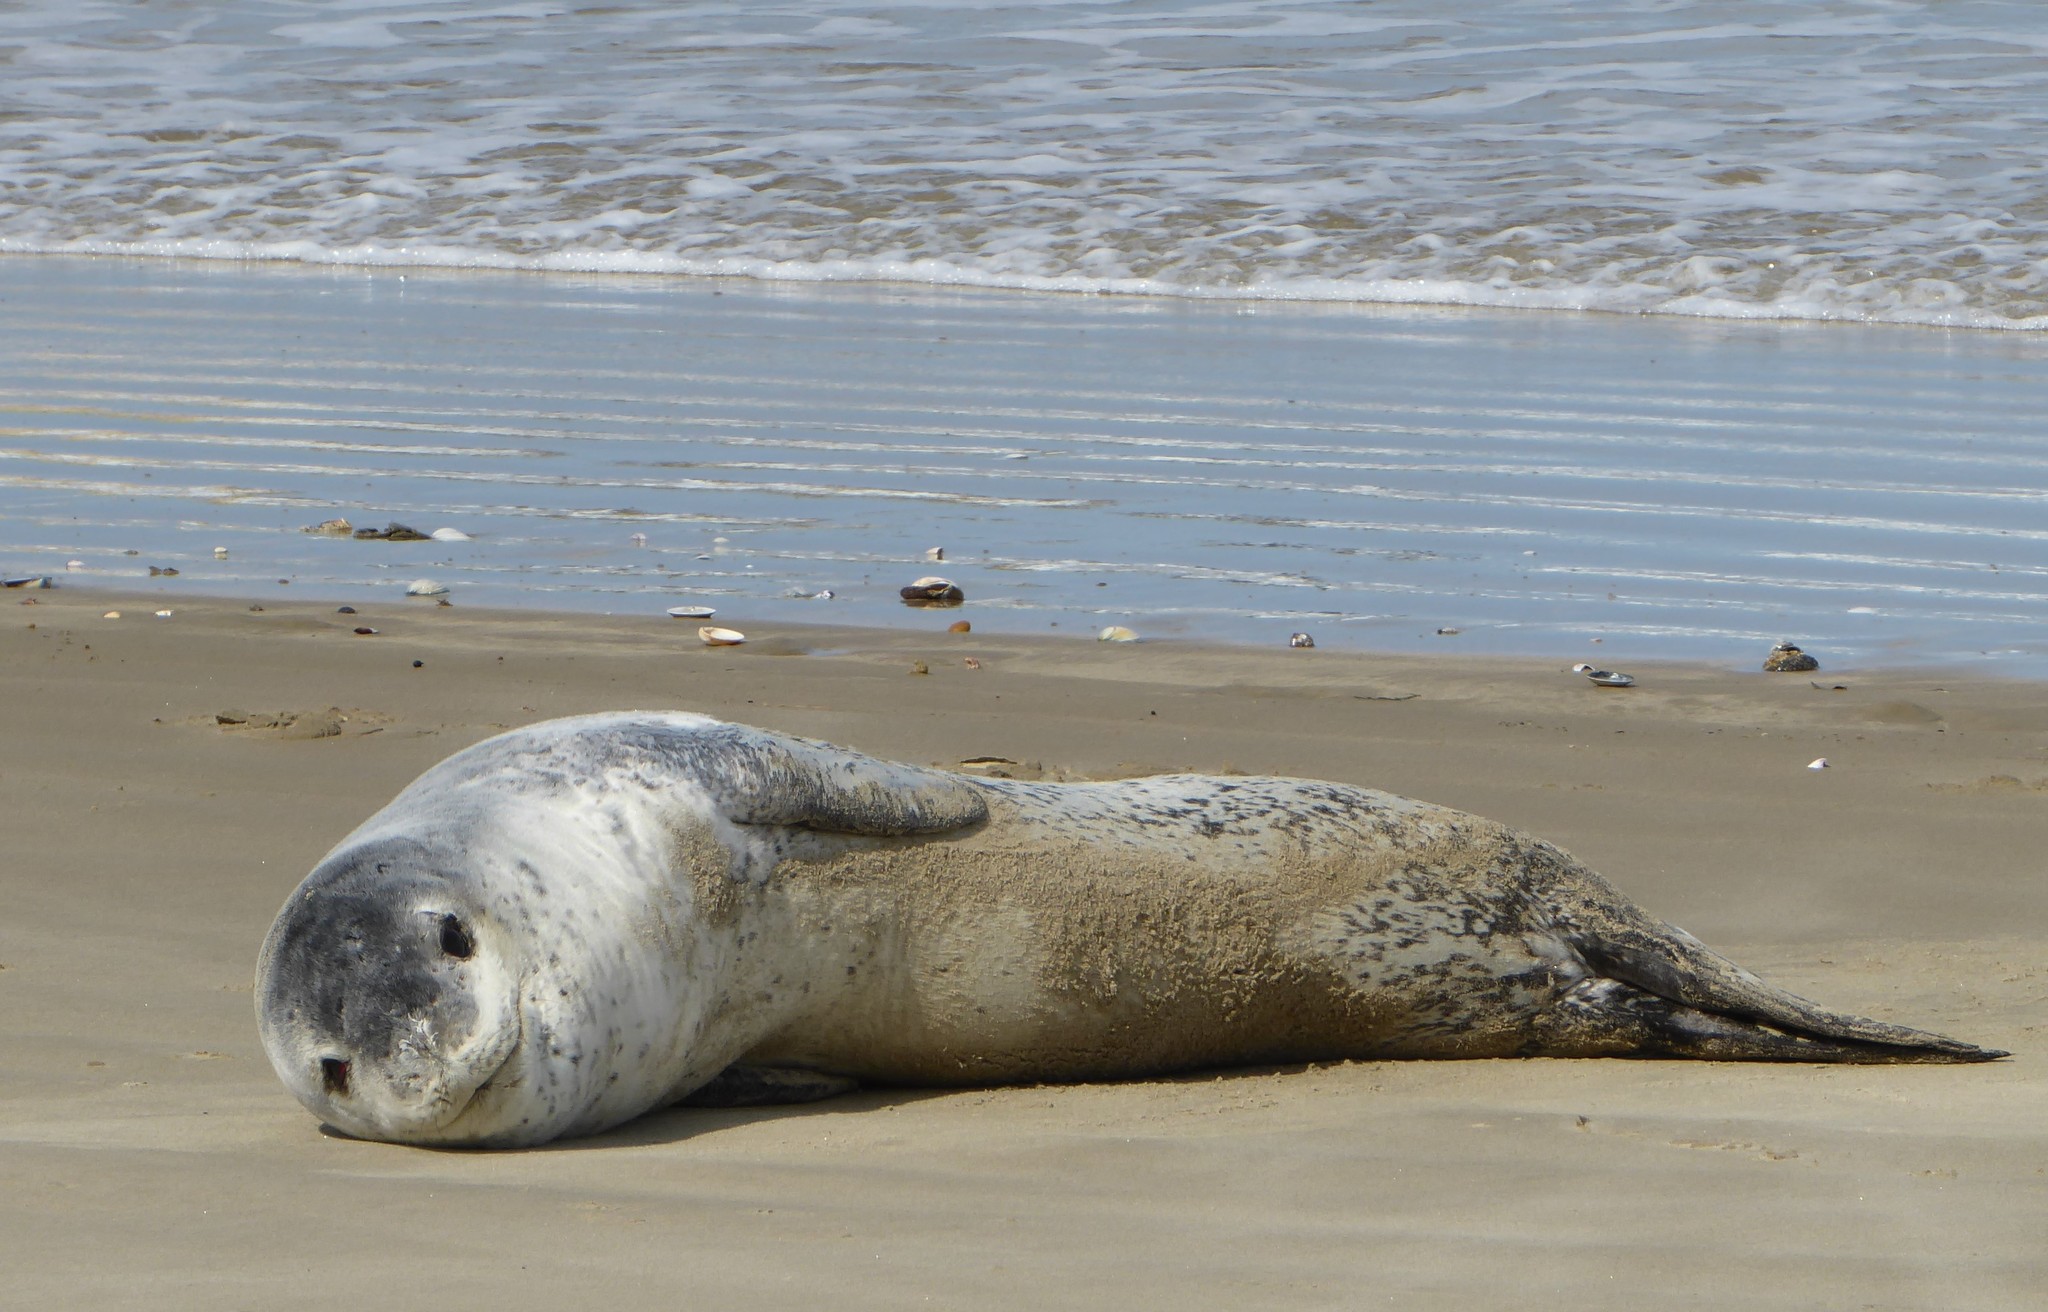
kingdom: Animalia
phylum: Chordata
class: Mammalia
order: Carnivora
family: Phocidae
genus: Hydrurga
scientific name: Hydrurga leptonyx
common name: Leopard seal
